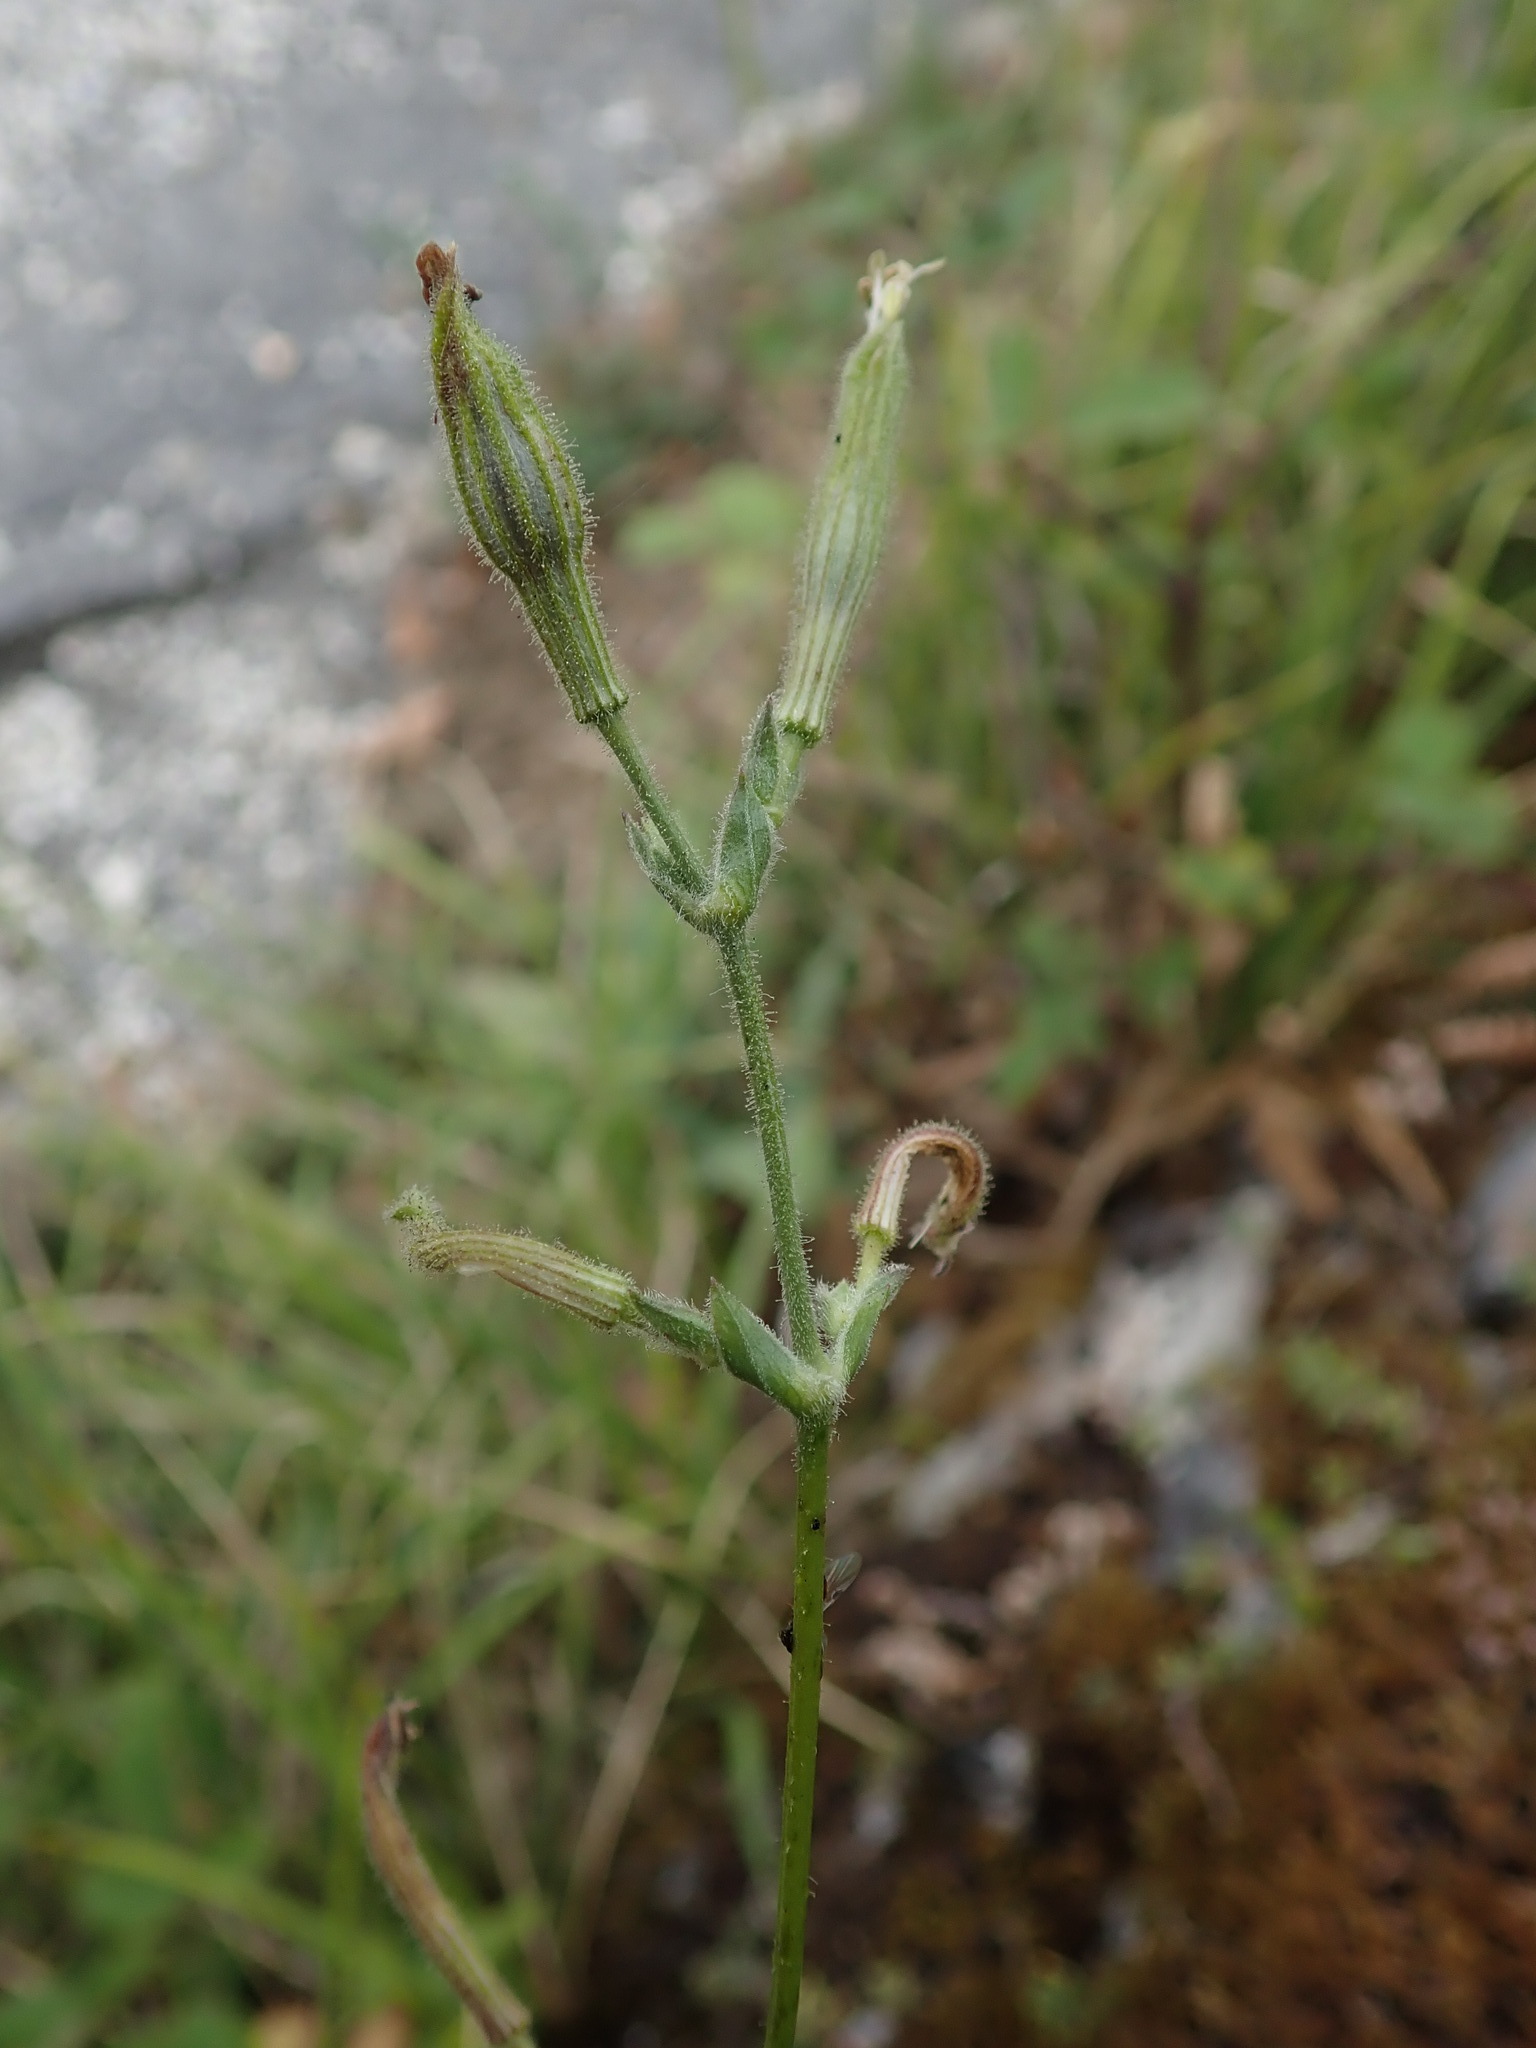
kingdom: Plantae
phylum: Tracheophyta
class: Magnoliopsida
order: Caryophyllales
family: Caryophyllaceae
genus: Silene
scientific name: Silene italica
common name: Italian catchfly
